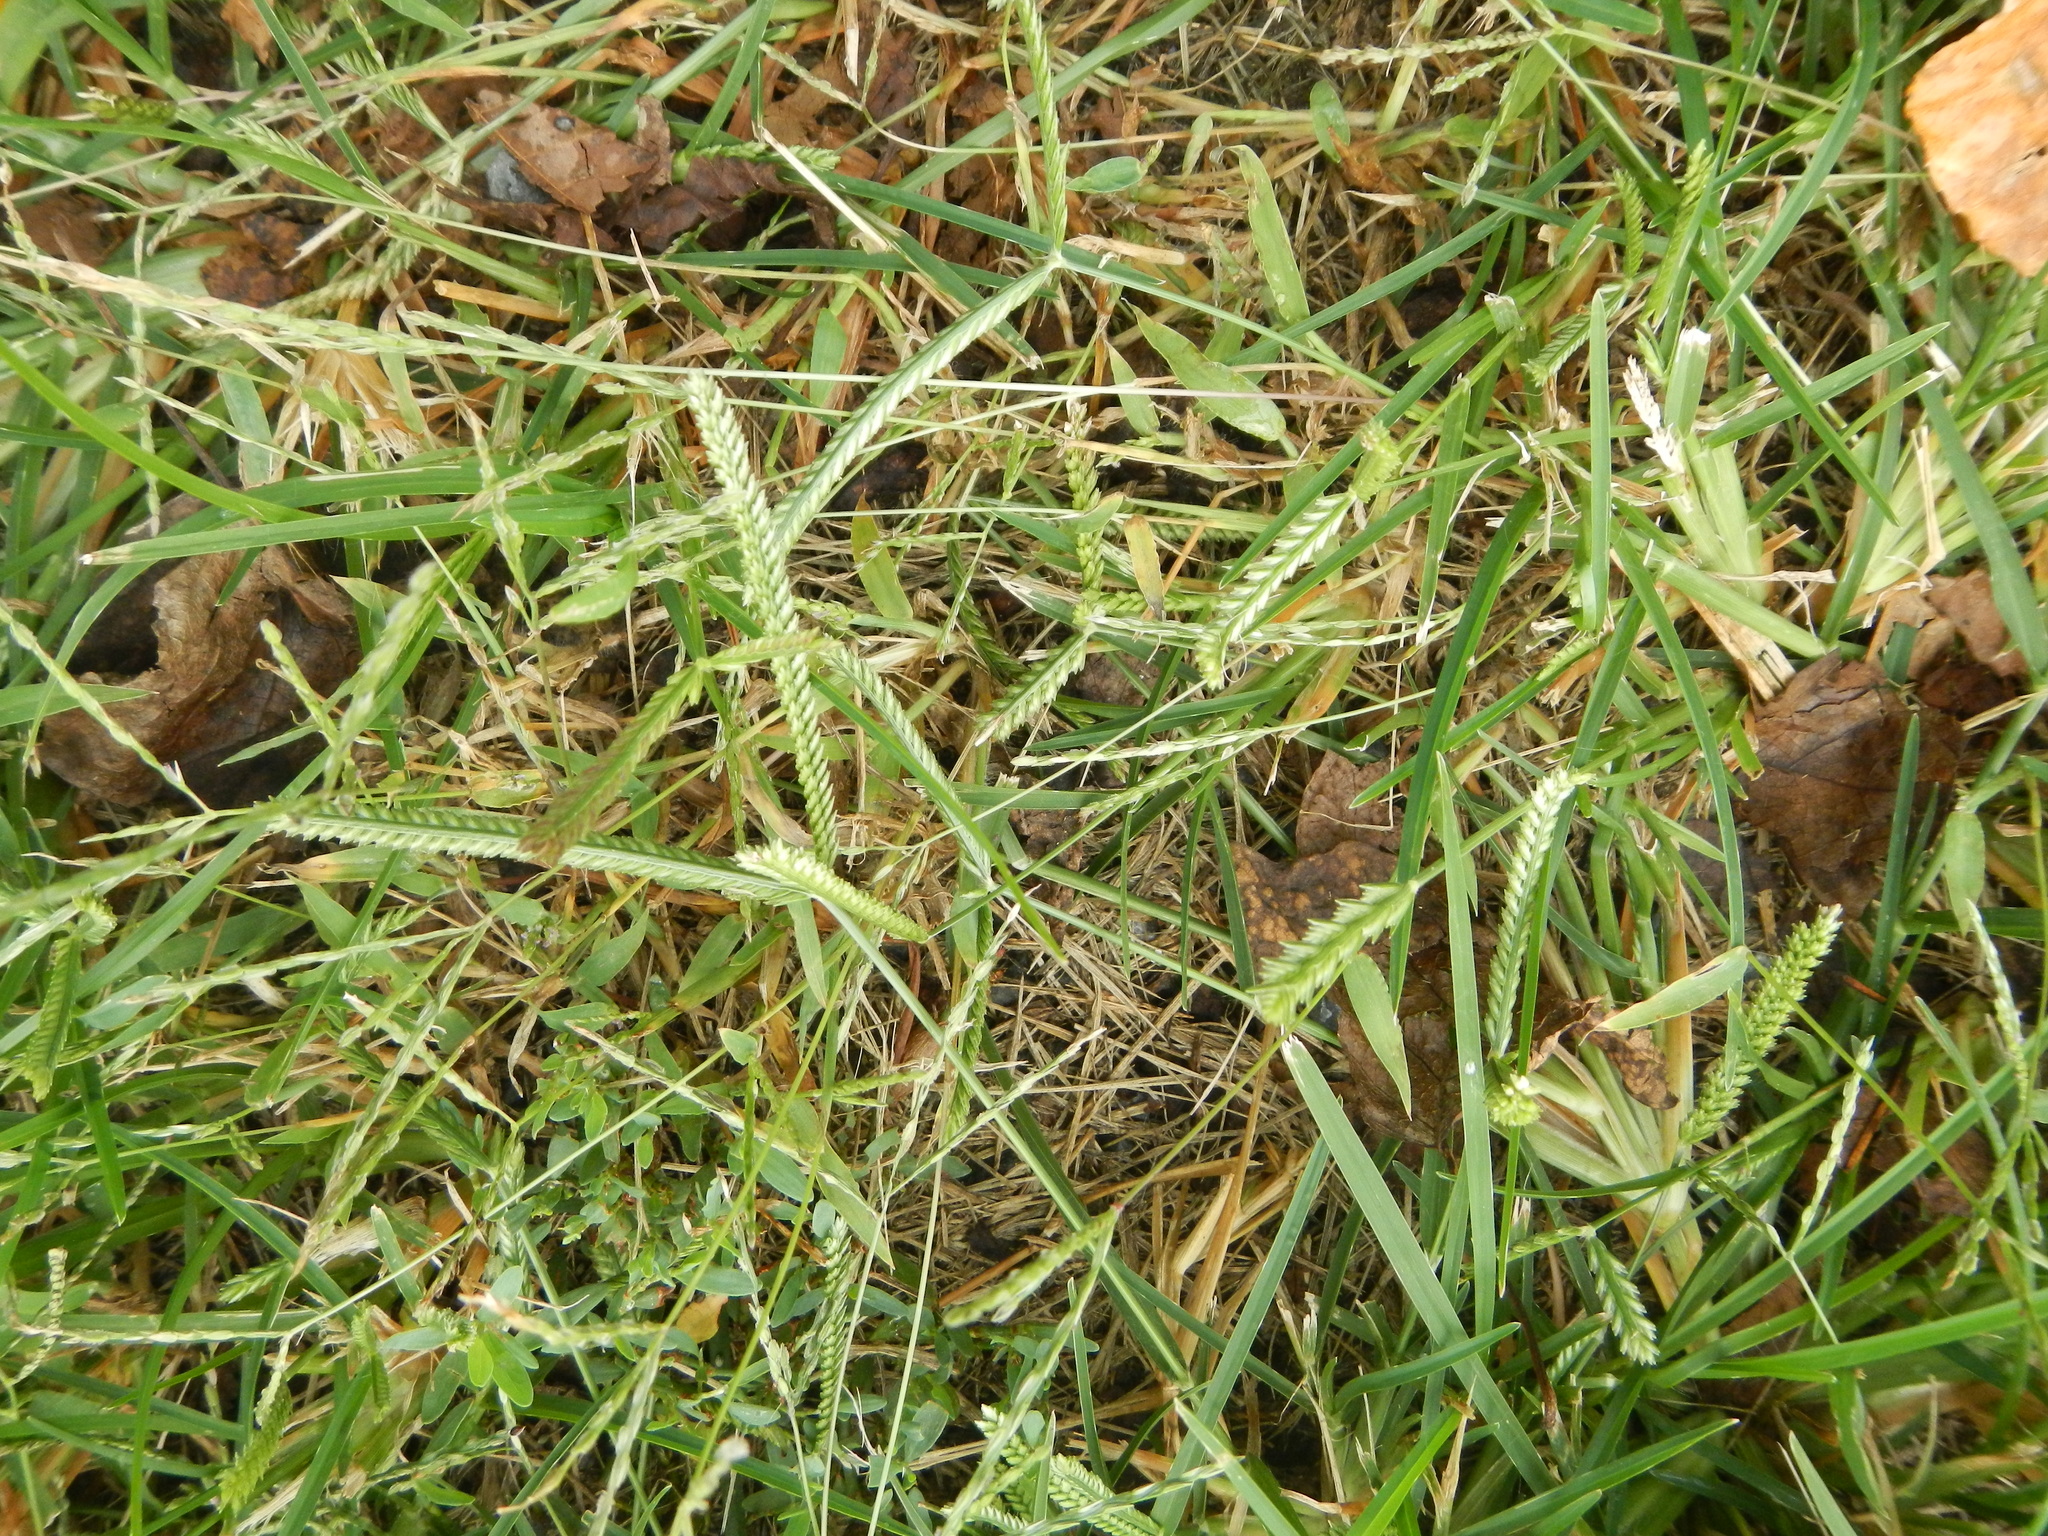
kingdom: Plantae
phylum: Tracheophyta
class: Liliopsida
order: Poales
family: Poaceae
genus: Eleusine
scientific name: Eleusine indica
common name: Yard-grass
